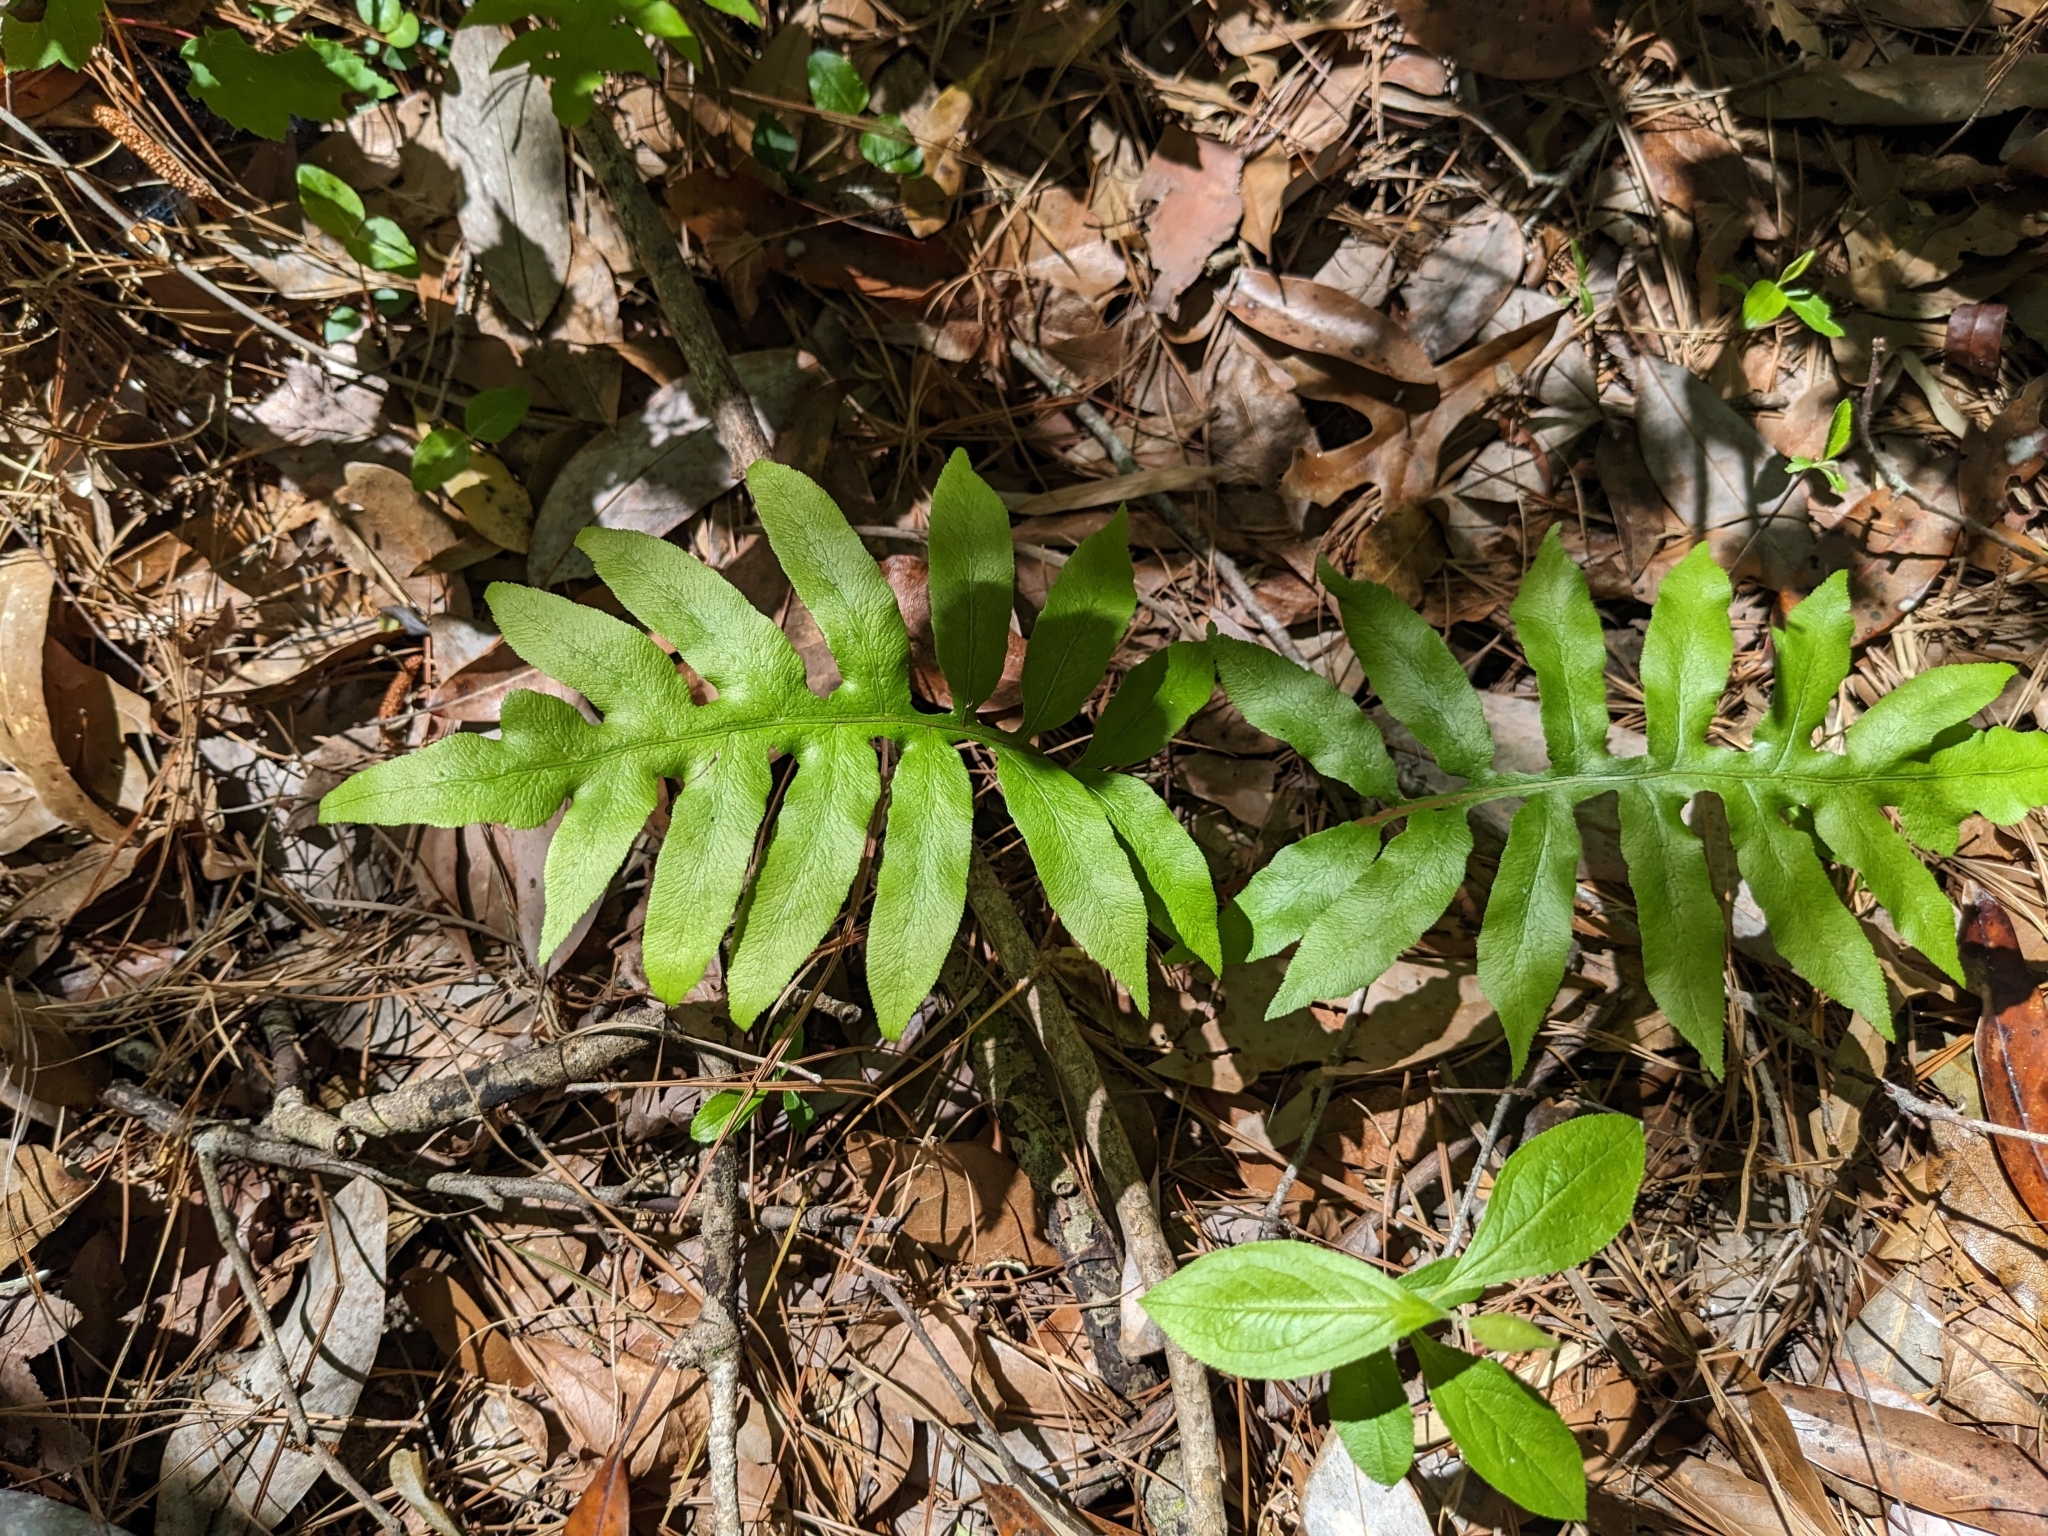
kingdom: Plantae
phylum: Tracheophyta
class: Polypodiopsida
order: Polypodiales
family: Blechnaceae
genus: Lorinseria
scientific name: Lorinseria areolata
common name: Dwarf chain fern
